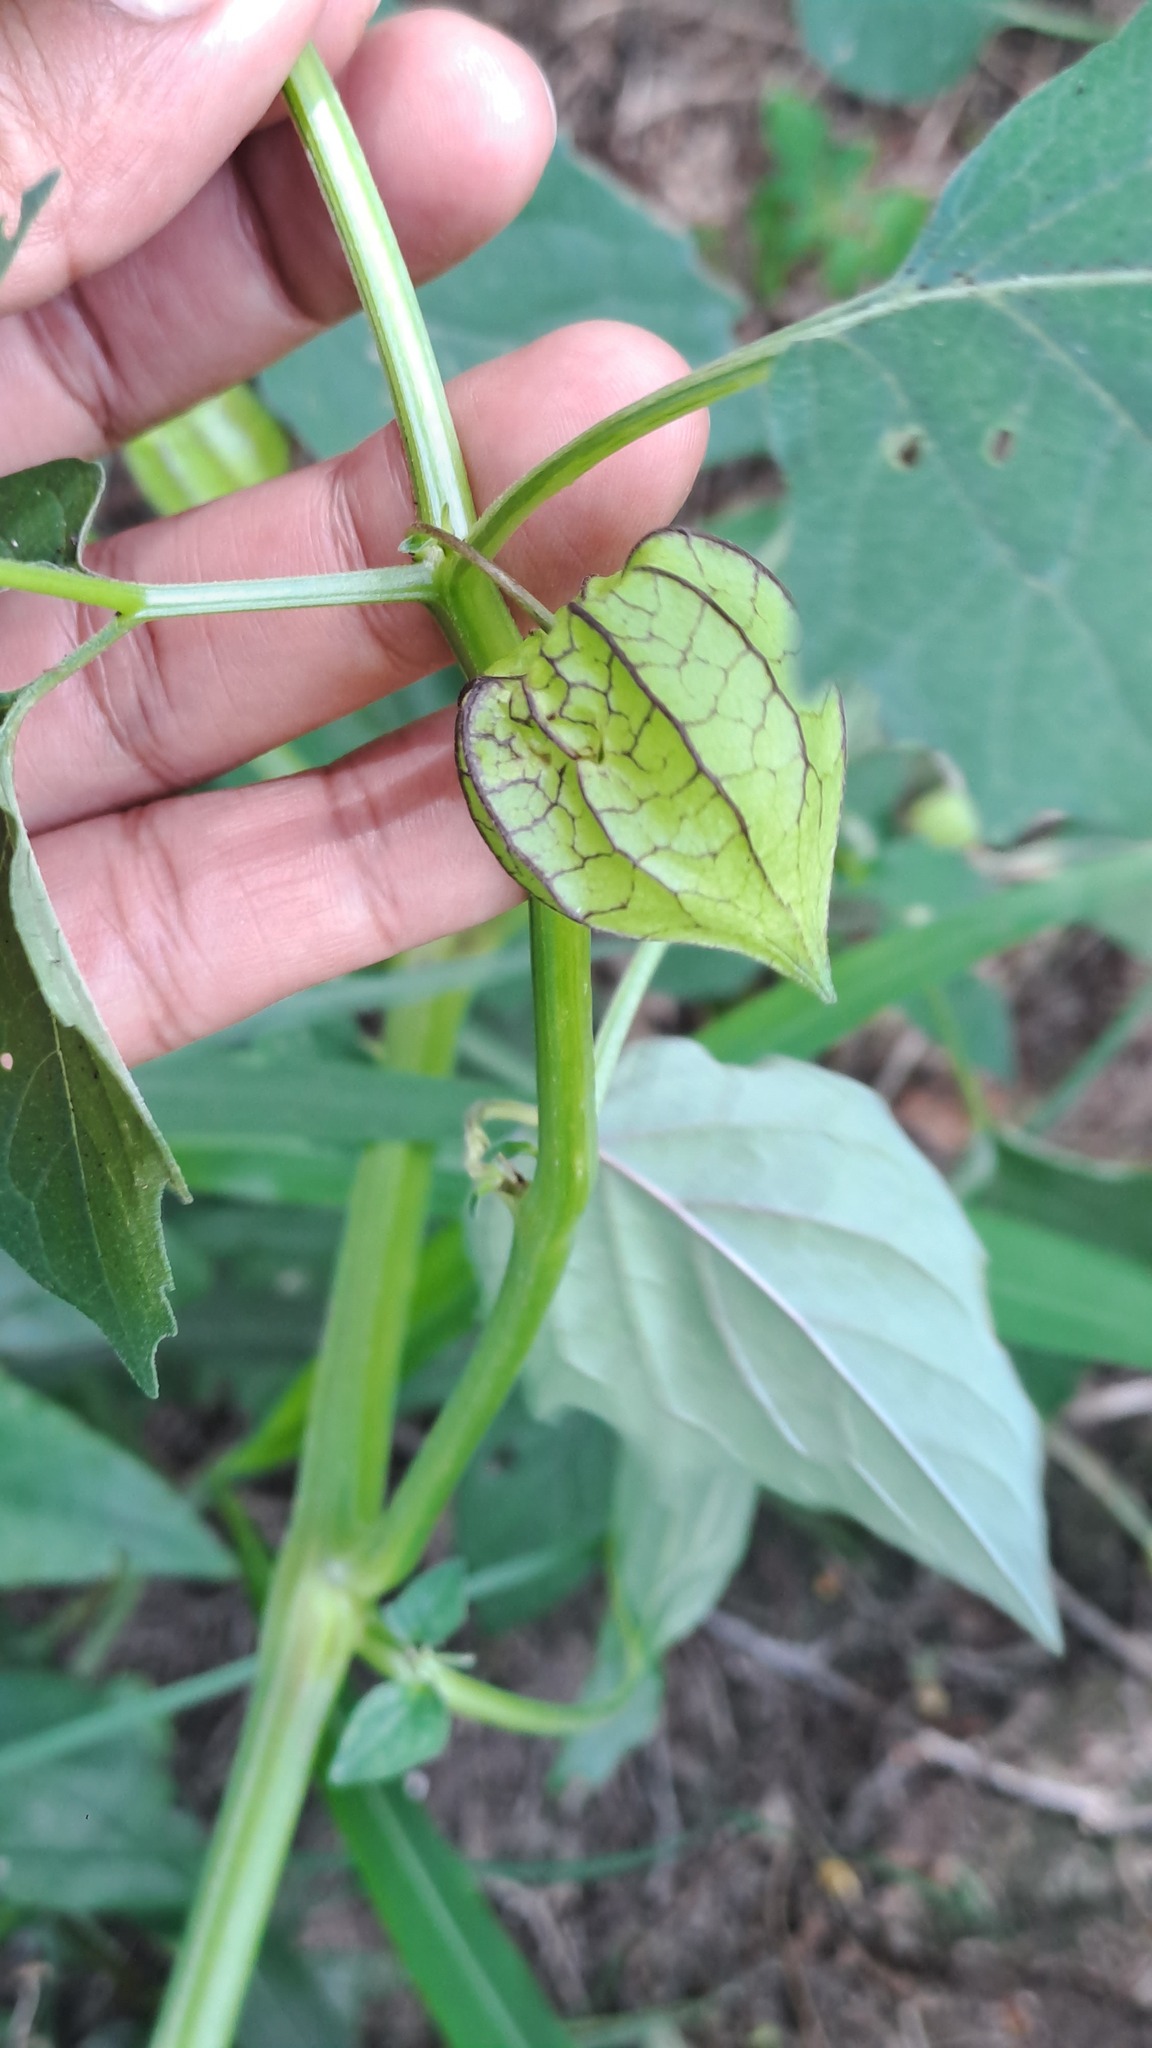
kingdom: Plantae
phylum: Tracheophyta
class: Magnoliopsida
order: Solanales
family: Solanaceae
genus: Physalis
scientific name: Physalis angulata
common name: Angular winter-cherry
